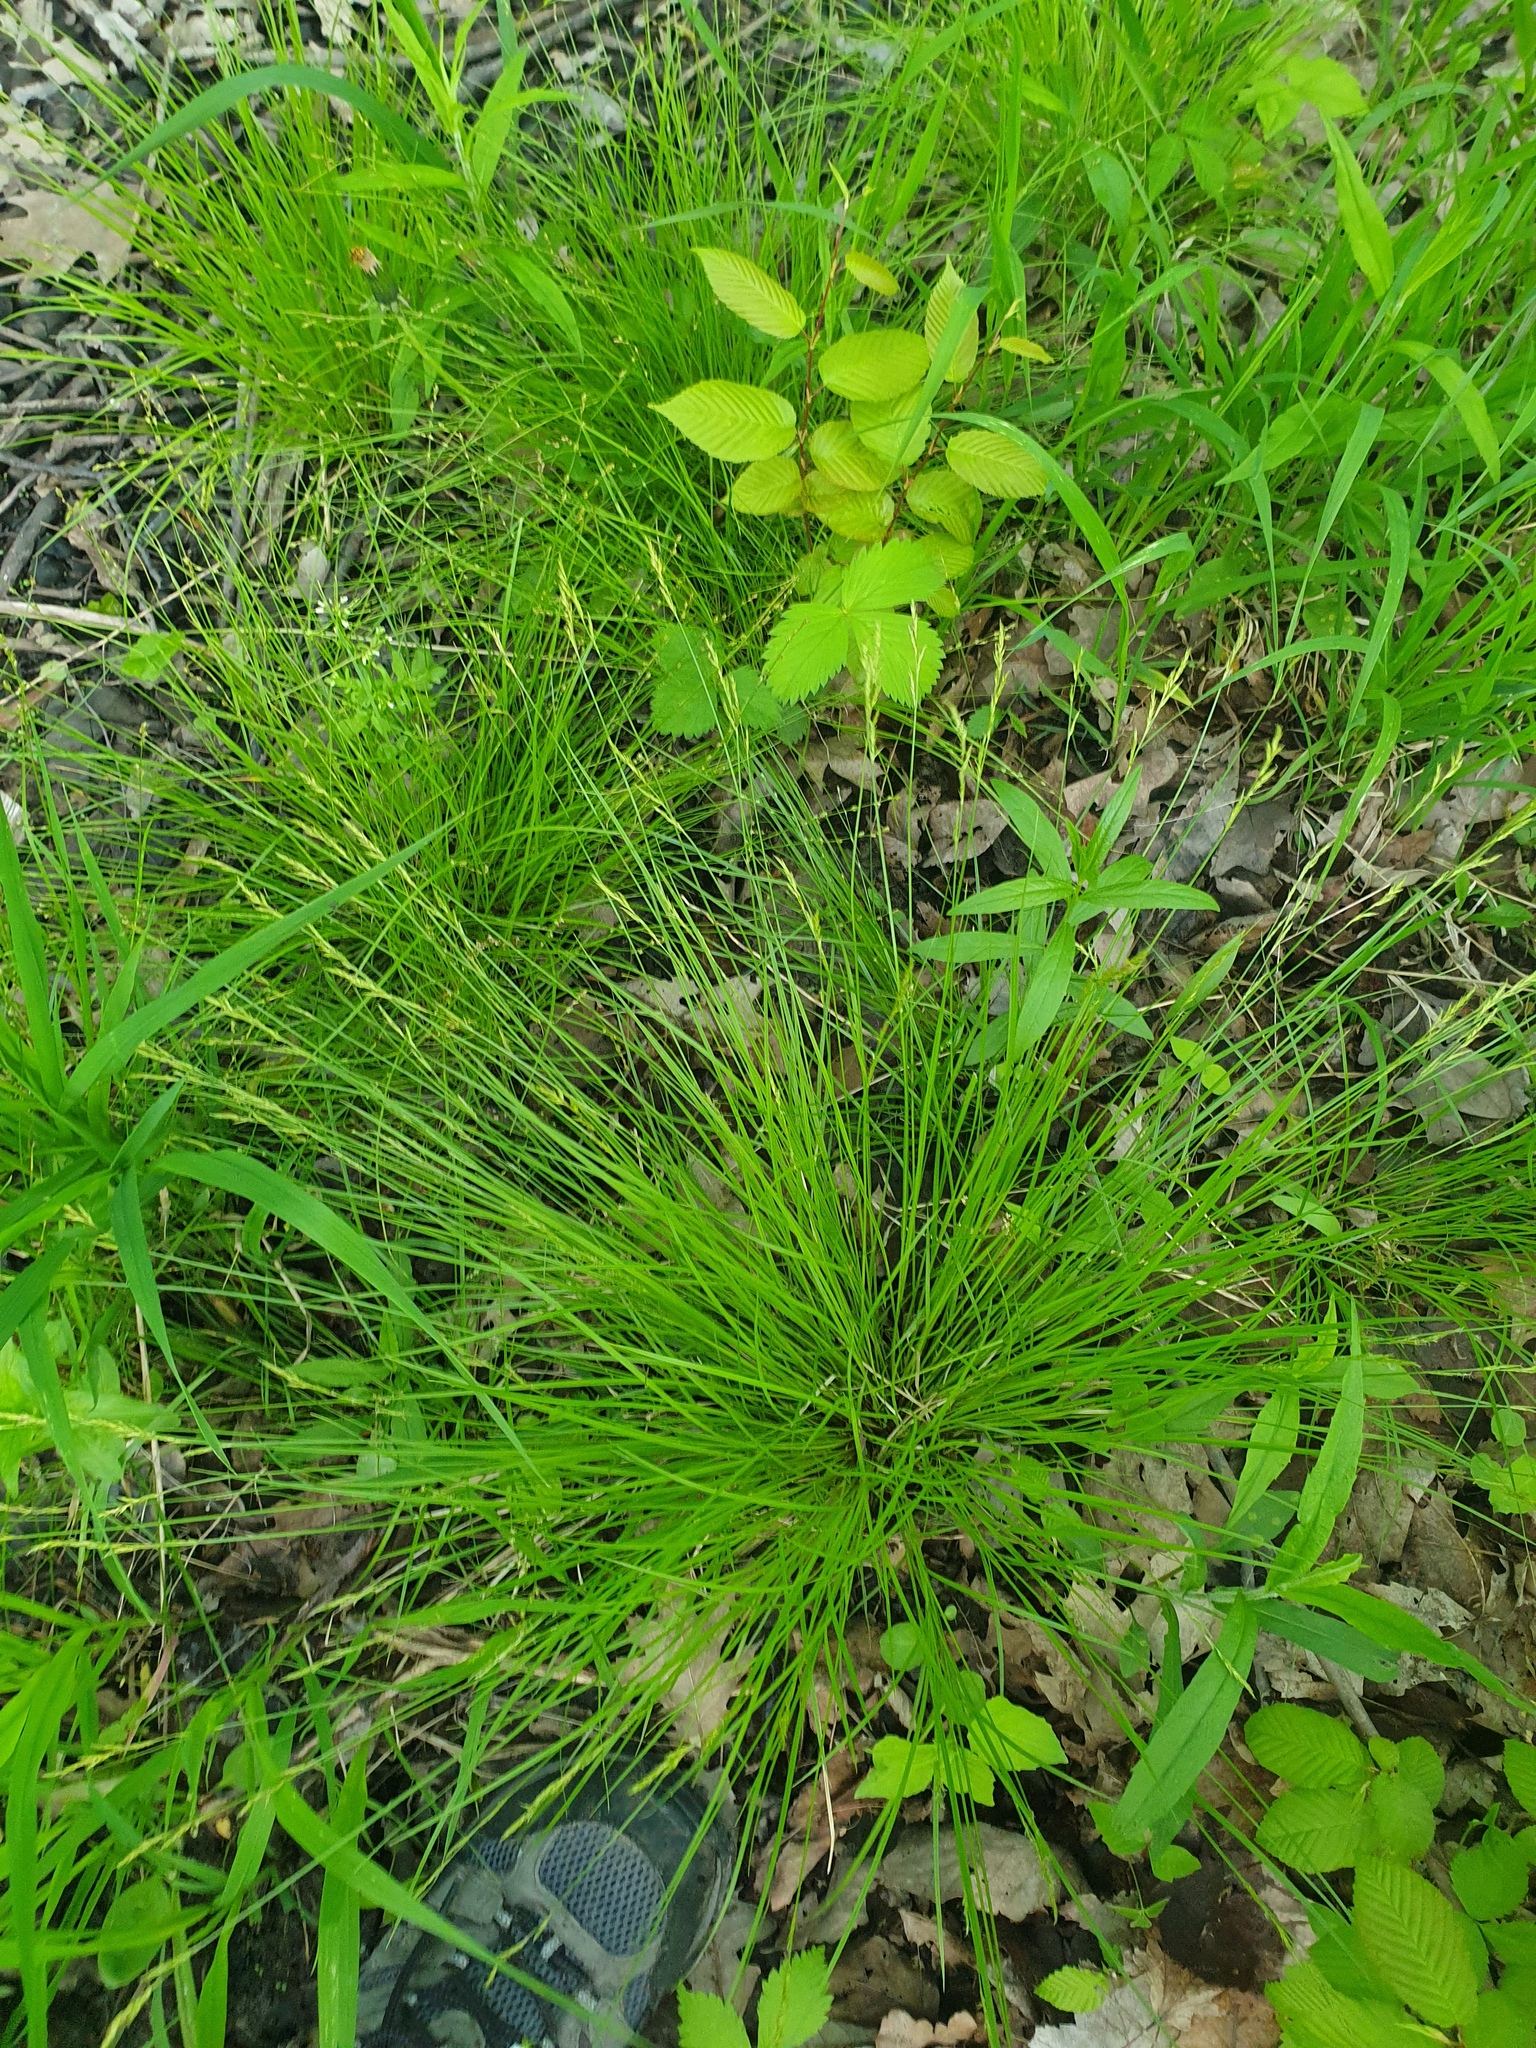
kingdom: Plantae
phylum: Tracheophyta
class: Liliopsida
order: Poales
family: Cyperaceae
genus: Carex
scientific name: Carex bromoides
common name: Brome hummock sedge
